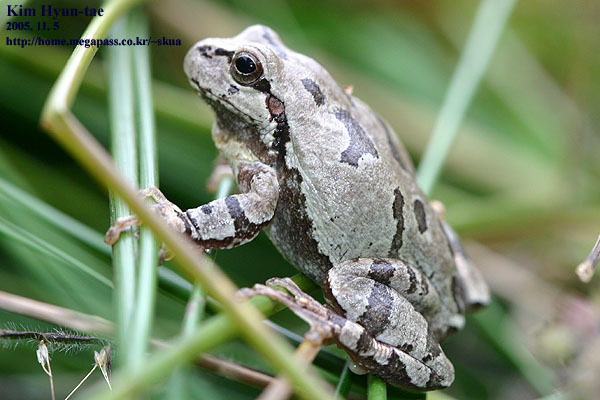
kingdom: Animalia
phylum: Chordata
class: Amphibia
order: Anura
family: Hylidae
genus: Dryophytes
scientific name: Dryophytes japonicus
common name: Japanese treefrog
